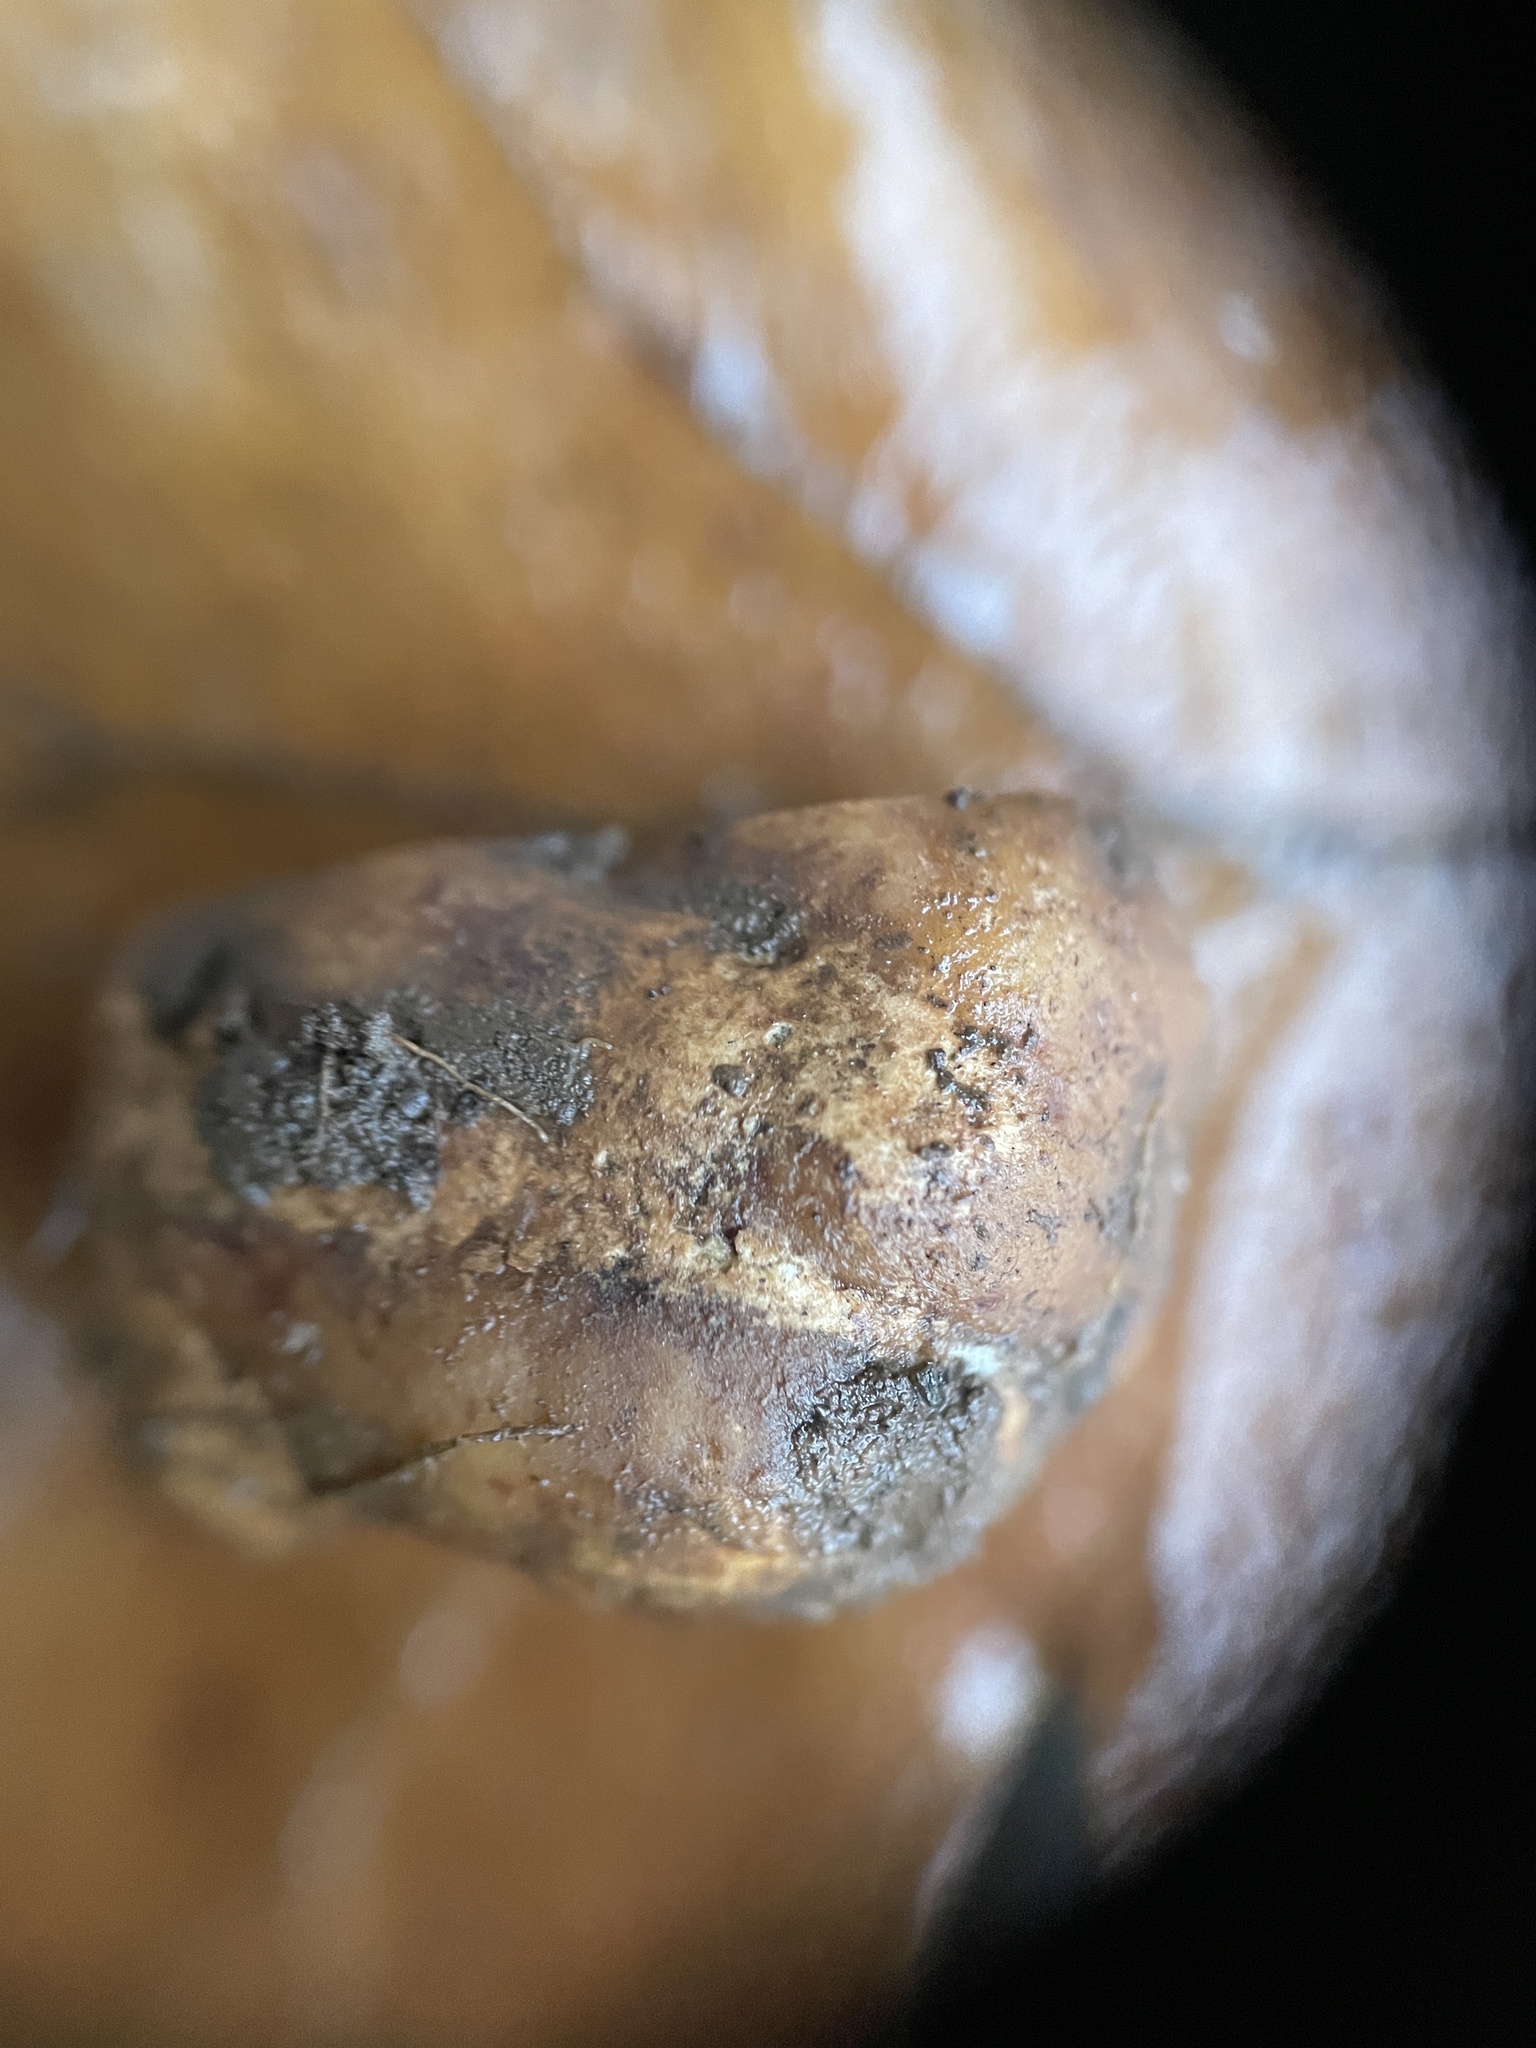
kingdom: Fungi
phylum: Ascomycota
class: Pezizomycetes
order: Pezizales
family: Tuberaceae
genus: Tuber
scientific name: Tuber candidum
